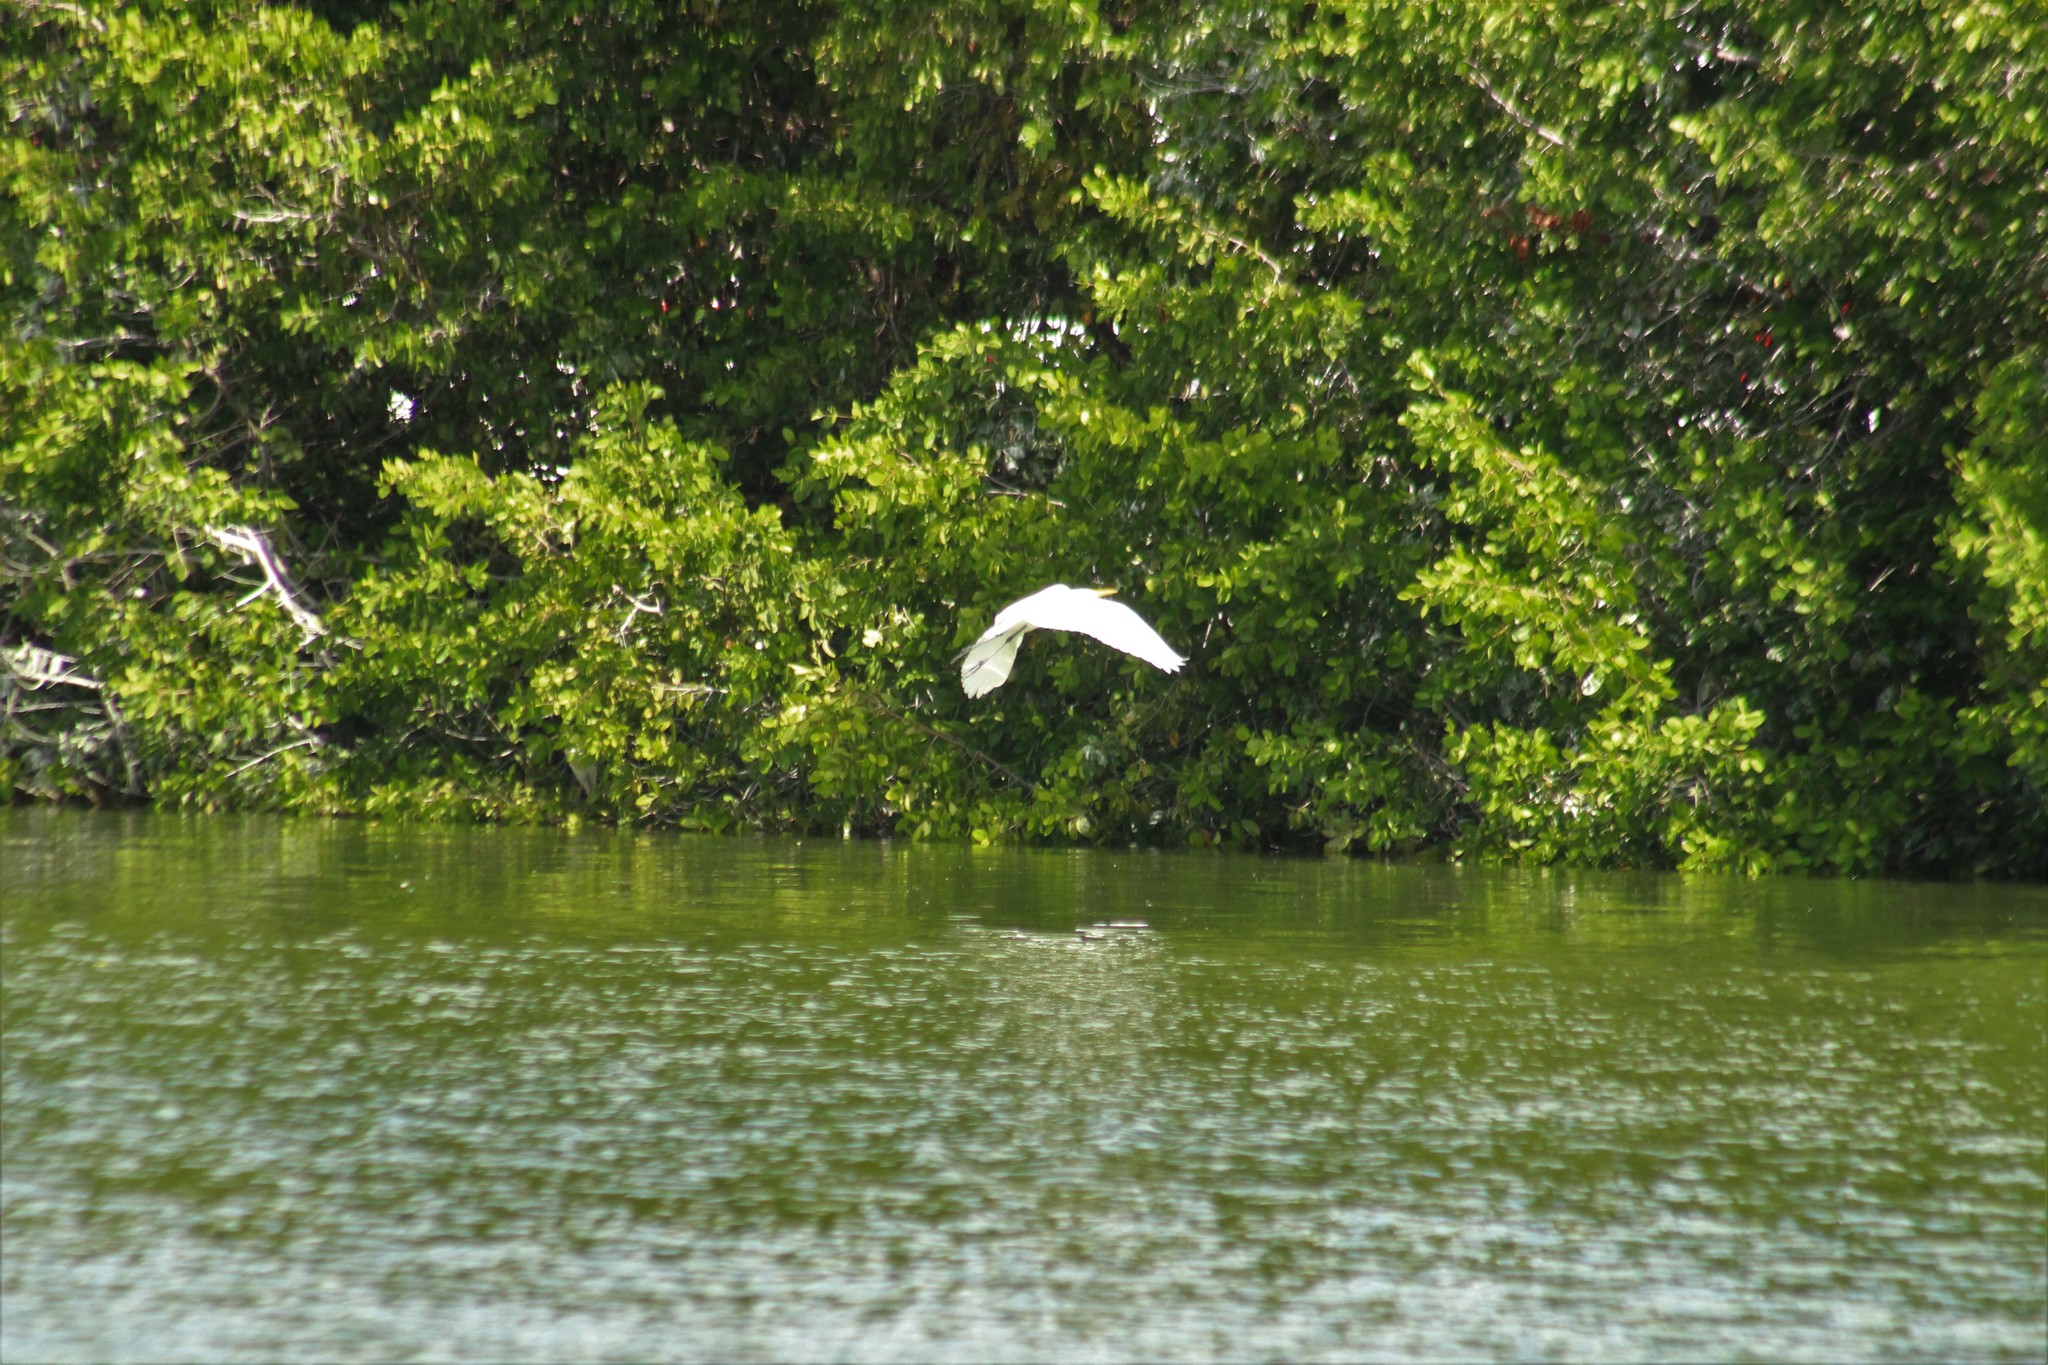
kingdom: Animalia
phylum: Chordata
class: Aves
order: Pelecaniformes
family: Ardeidae
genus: Ardea
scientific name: Ardea alba
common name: Great egret
